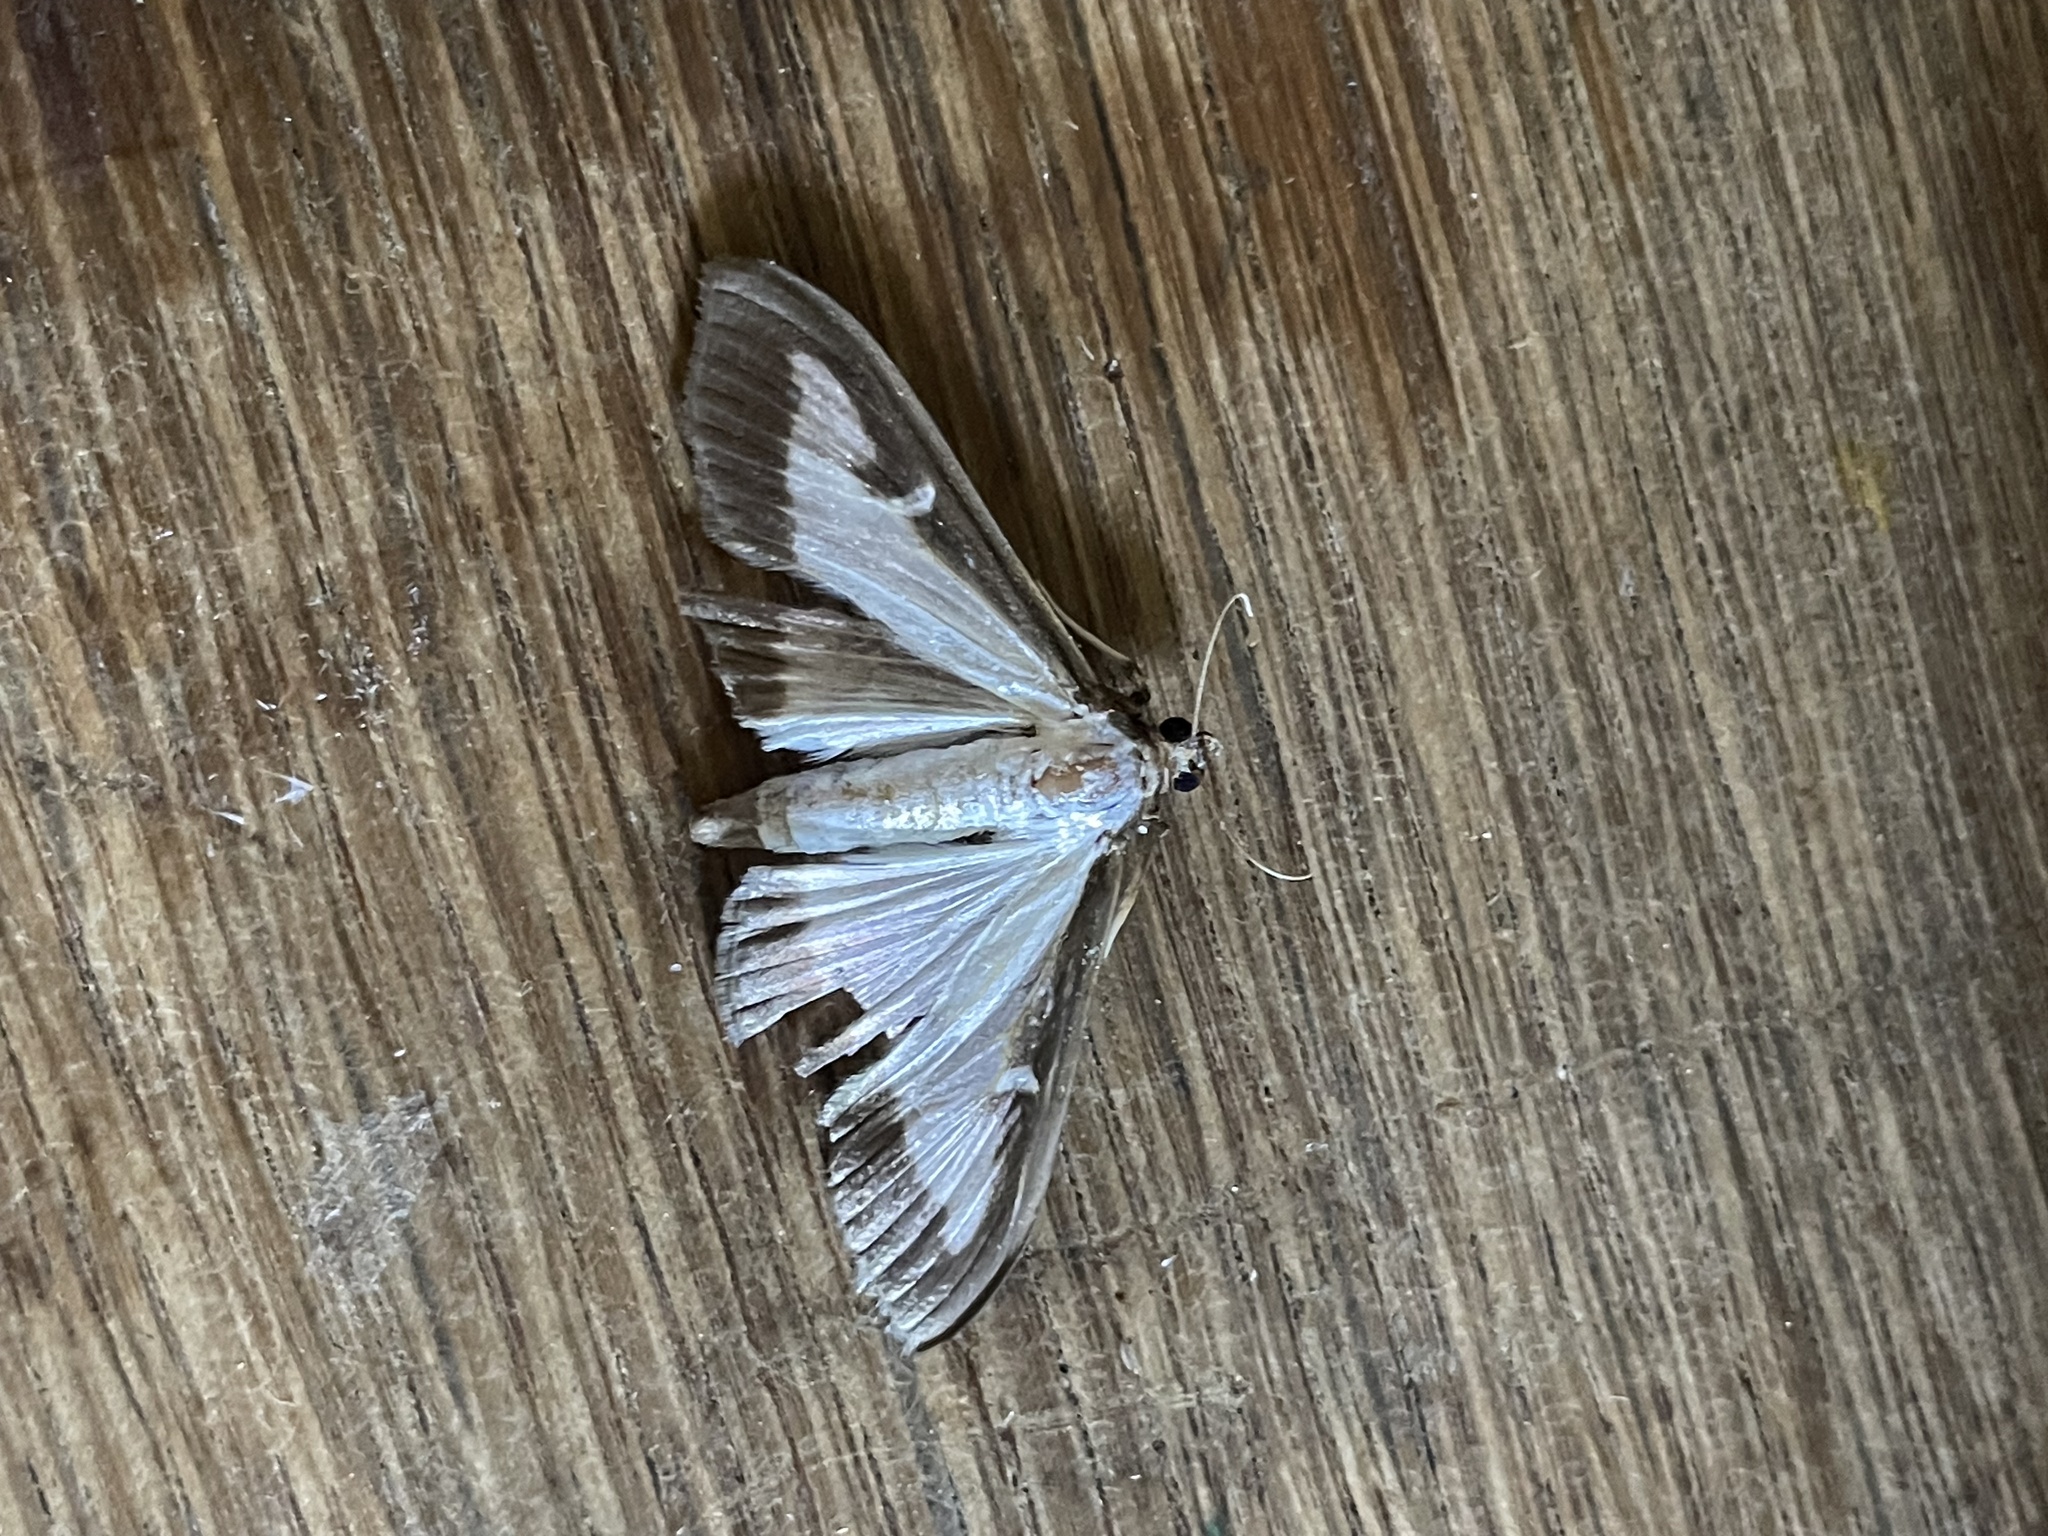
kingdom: Animalia
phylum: Arthropoda
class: Insecta
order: Lepidoptera
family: Crambidae
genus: Cydalima
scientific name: Cydalima perspectalis
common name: Box tree moth
